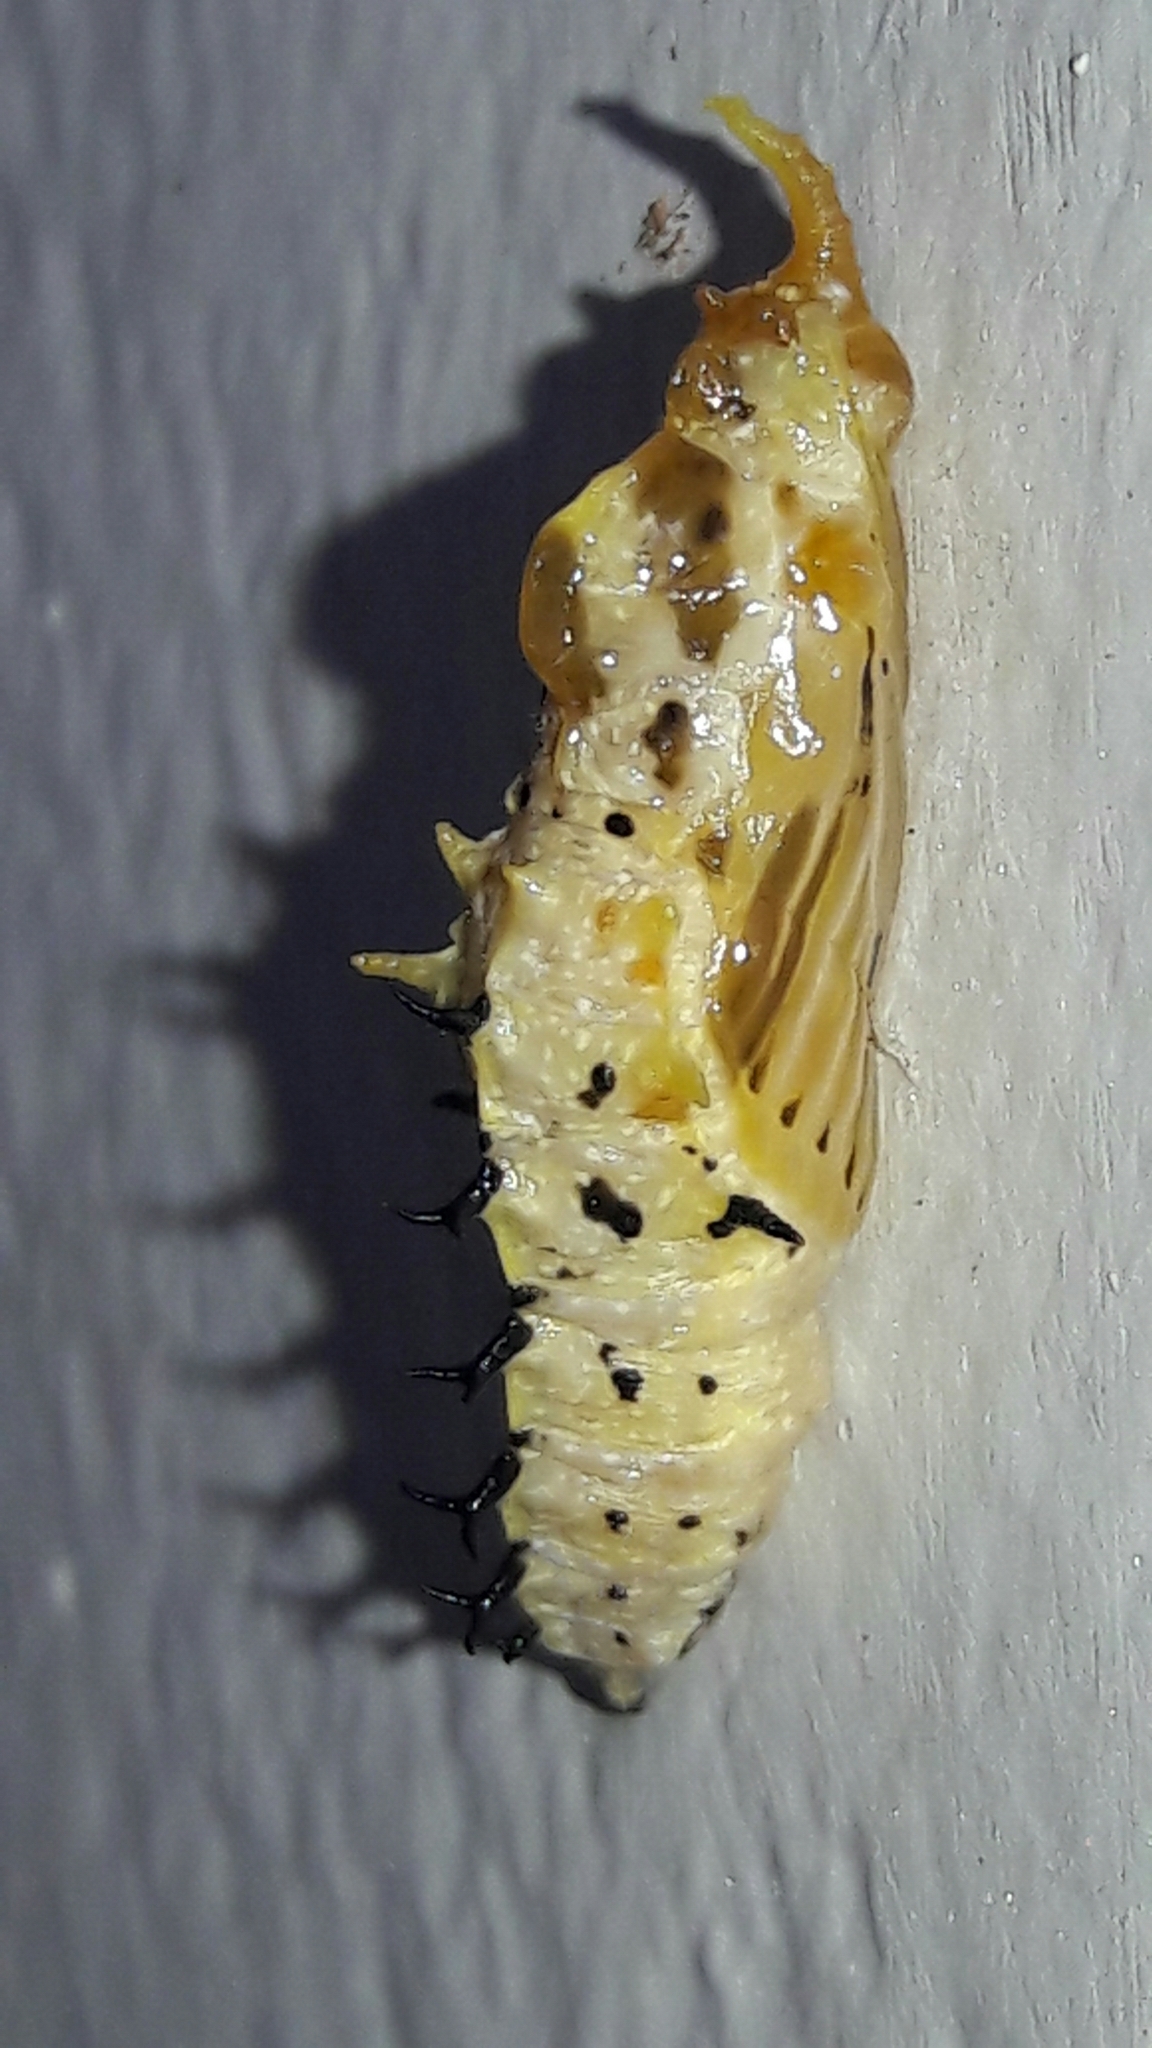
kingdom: Animalia
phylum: Arthropoda
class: Insecta
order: Lepidoptera
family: Pieridae
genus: Melete
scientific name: Melete lycimnia
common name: Common melwhite
